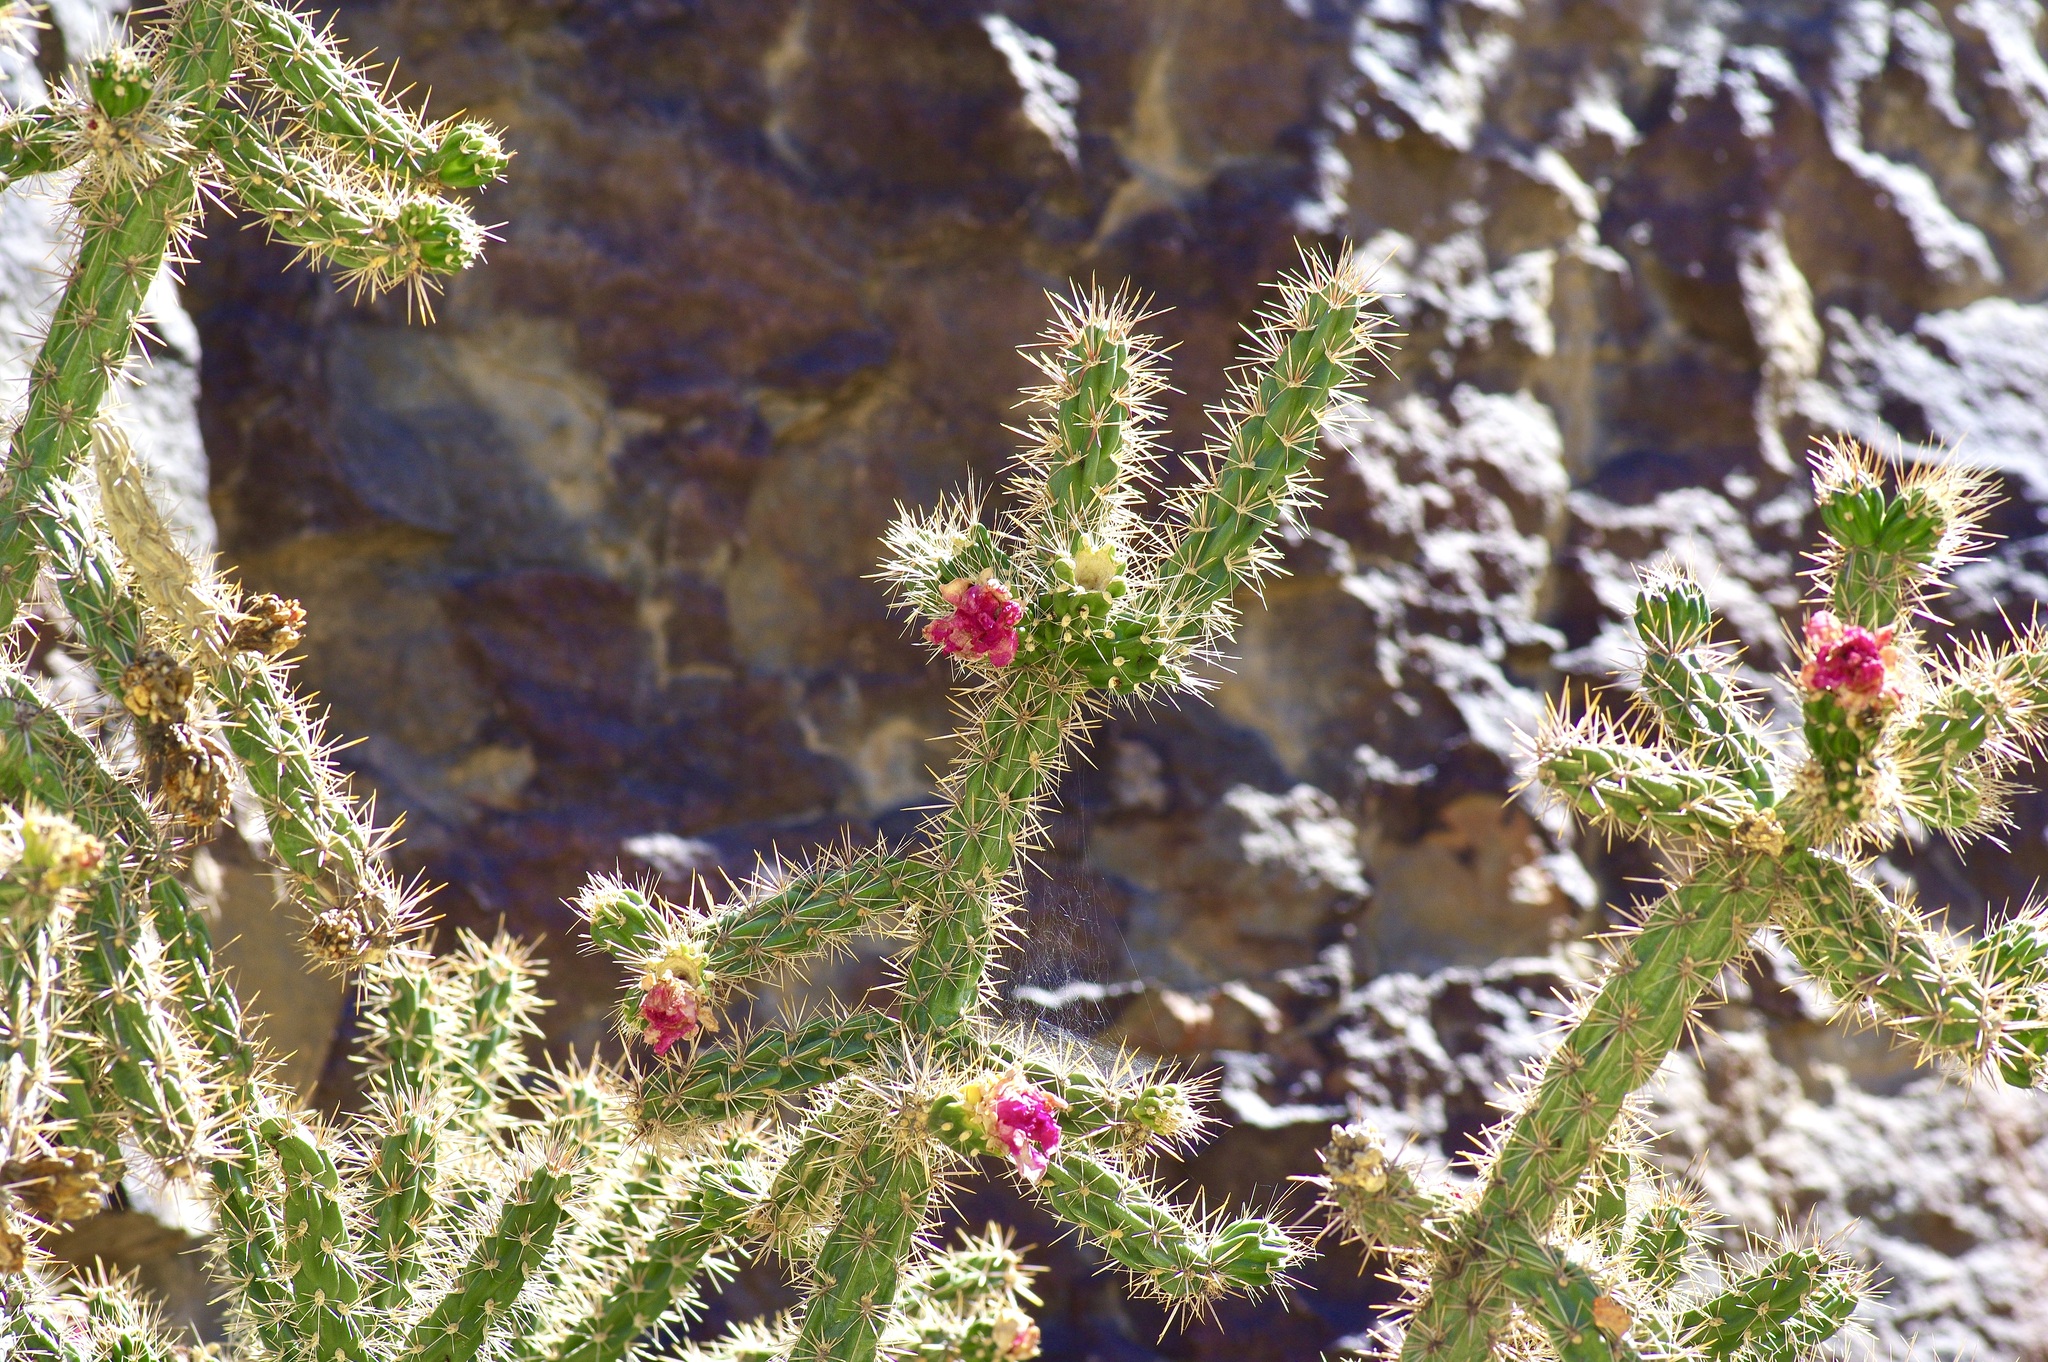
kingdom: Plantae
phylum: Tracheophyta
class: Magnoliopsida
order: Caryophyllales
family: Cactaceae
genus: Cylindropuntia
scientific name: Cylindropuntia imbricata
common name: Candelabrum cactus
